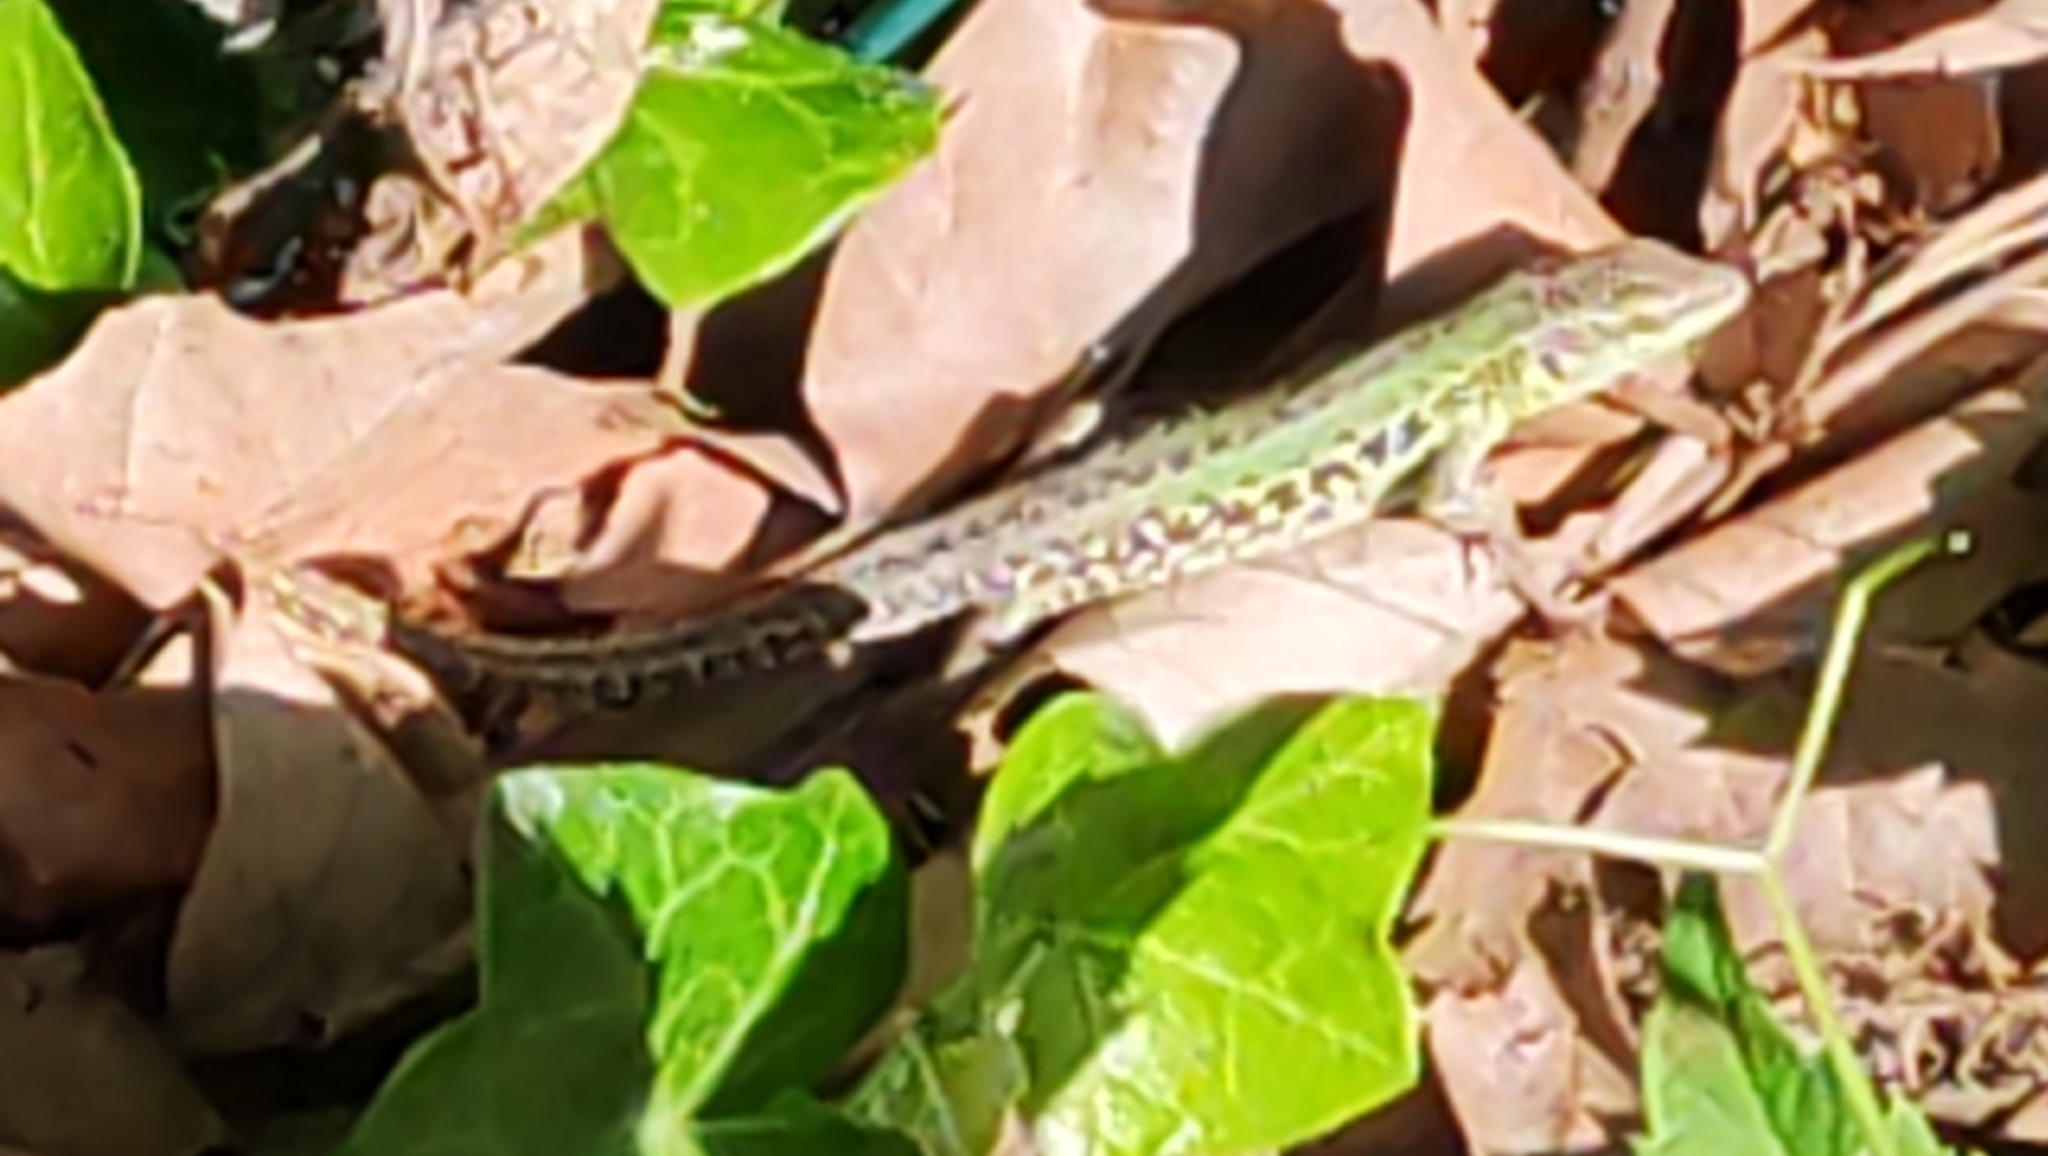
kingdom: Animalia
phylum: Chordata
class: Squamata
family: Lacertidae
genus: Podarcis
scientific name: Podarcis siculus
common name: Italian wall lizard
